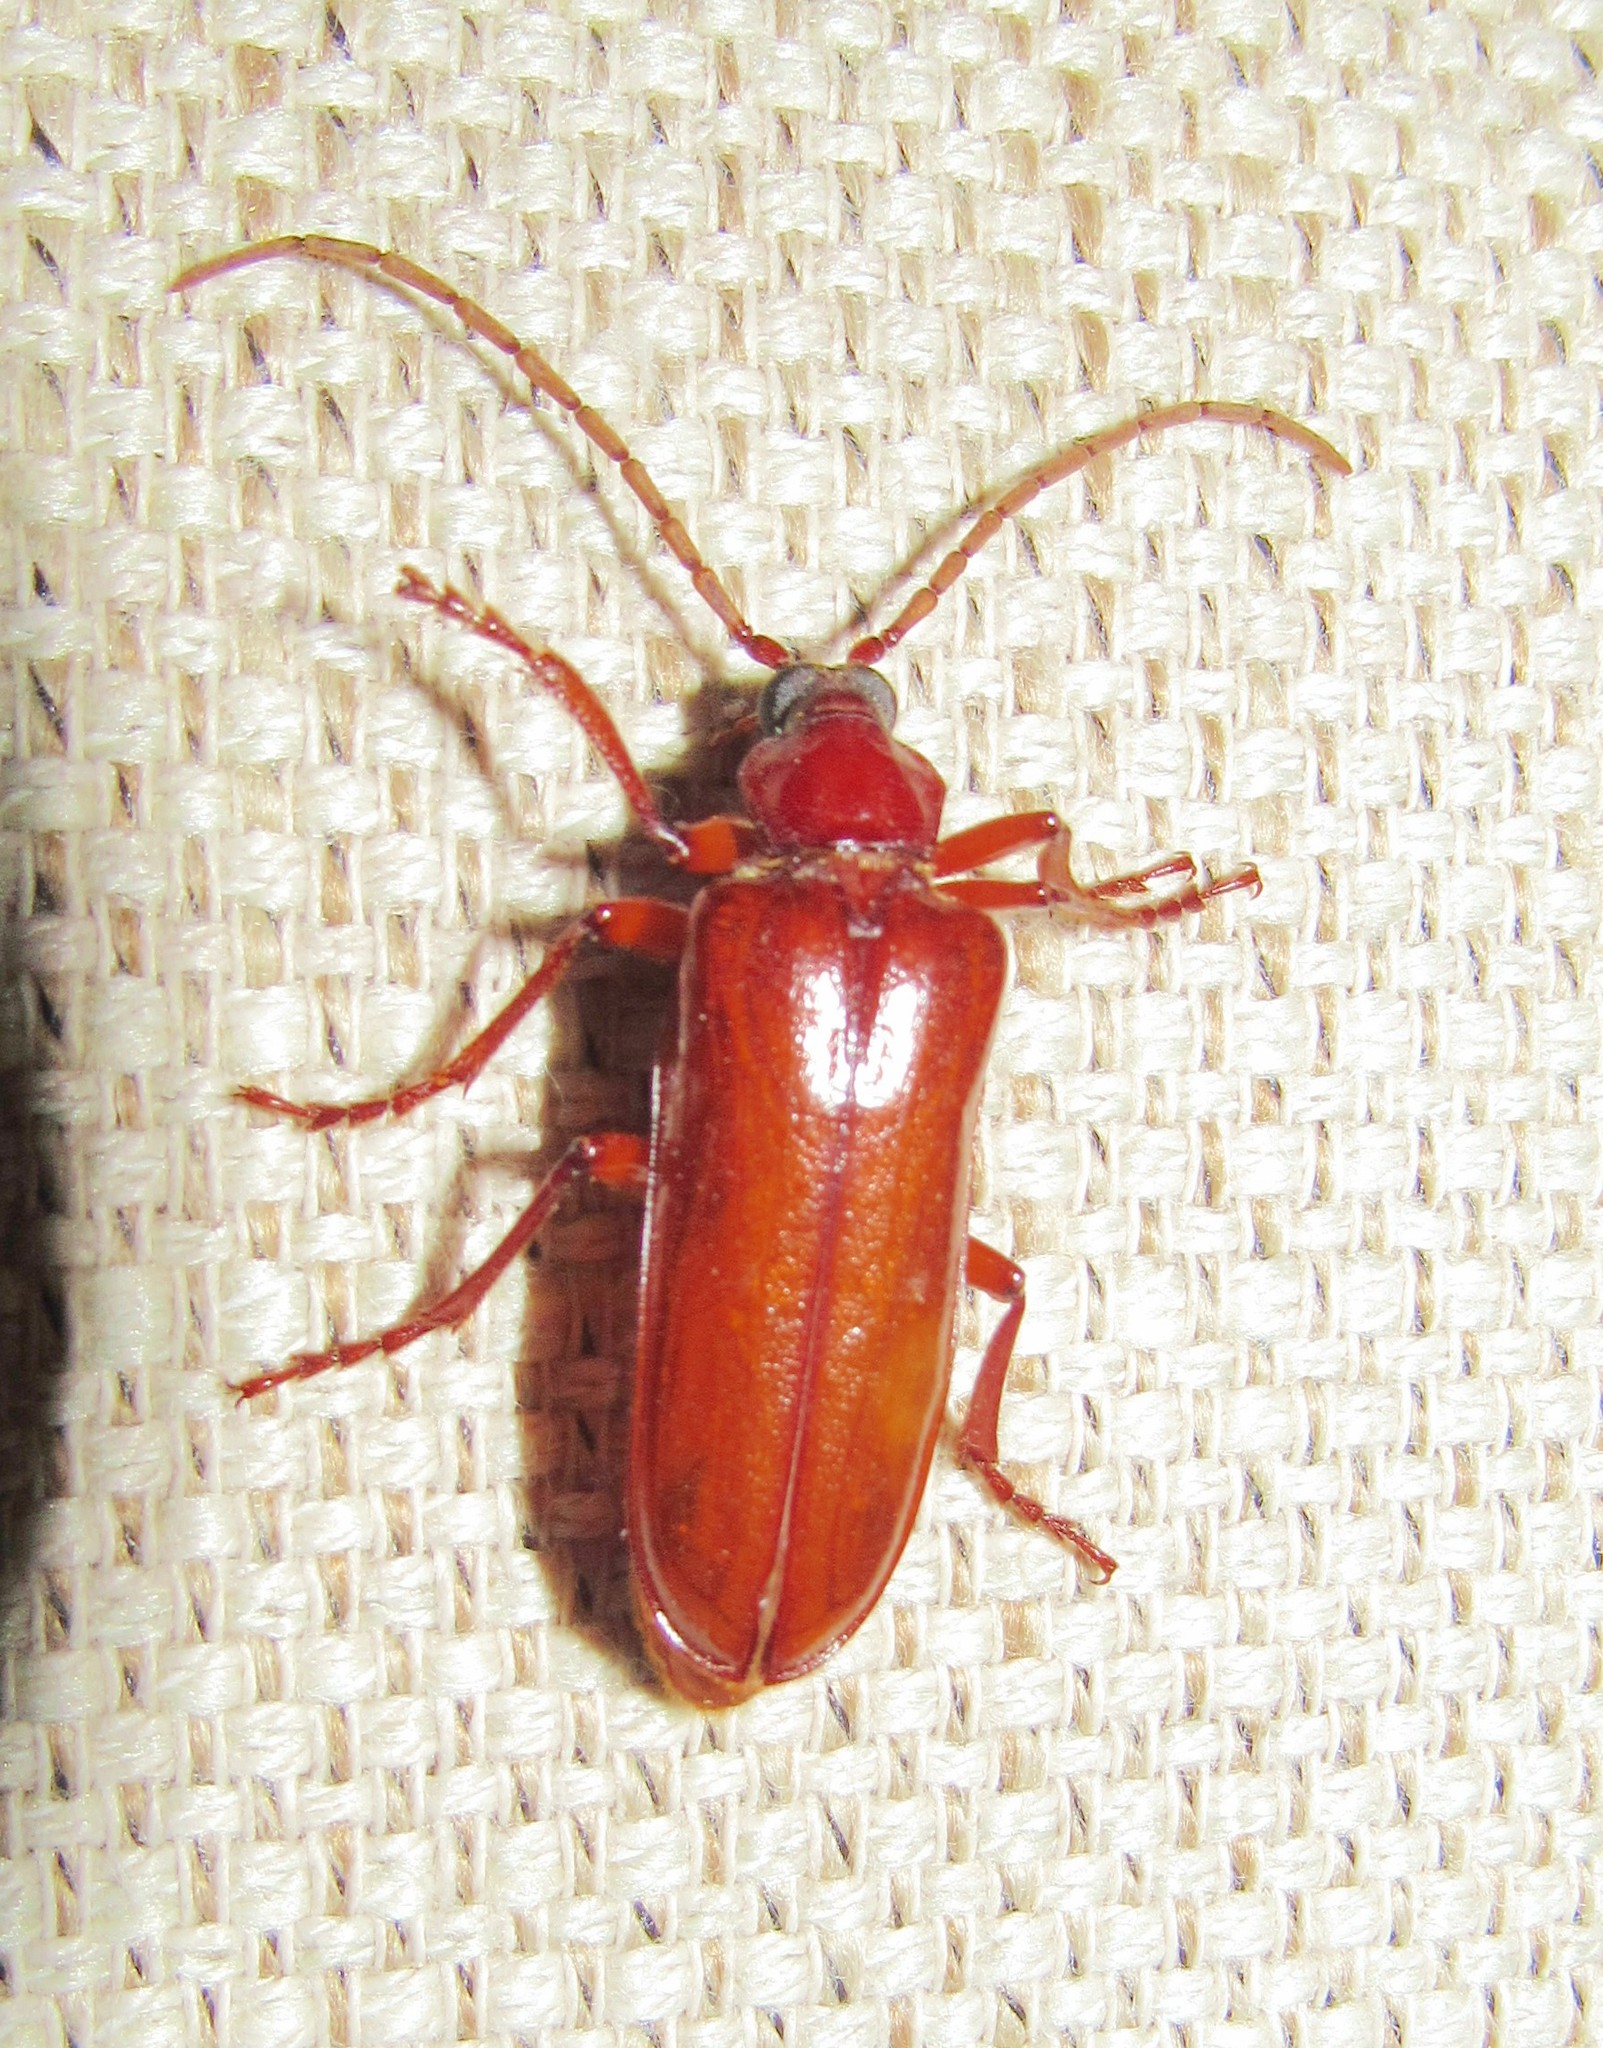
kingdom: Animalia
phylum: Arthropoda
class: Insecta
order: Coleoptera
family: Cerambycidae
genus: Mysteria
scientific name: Mysteria cylindripennis
